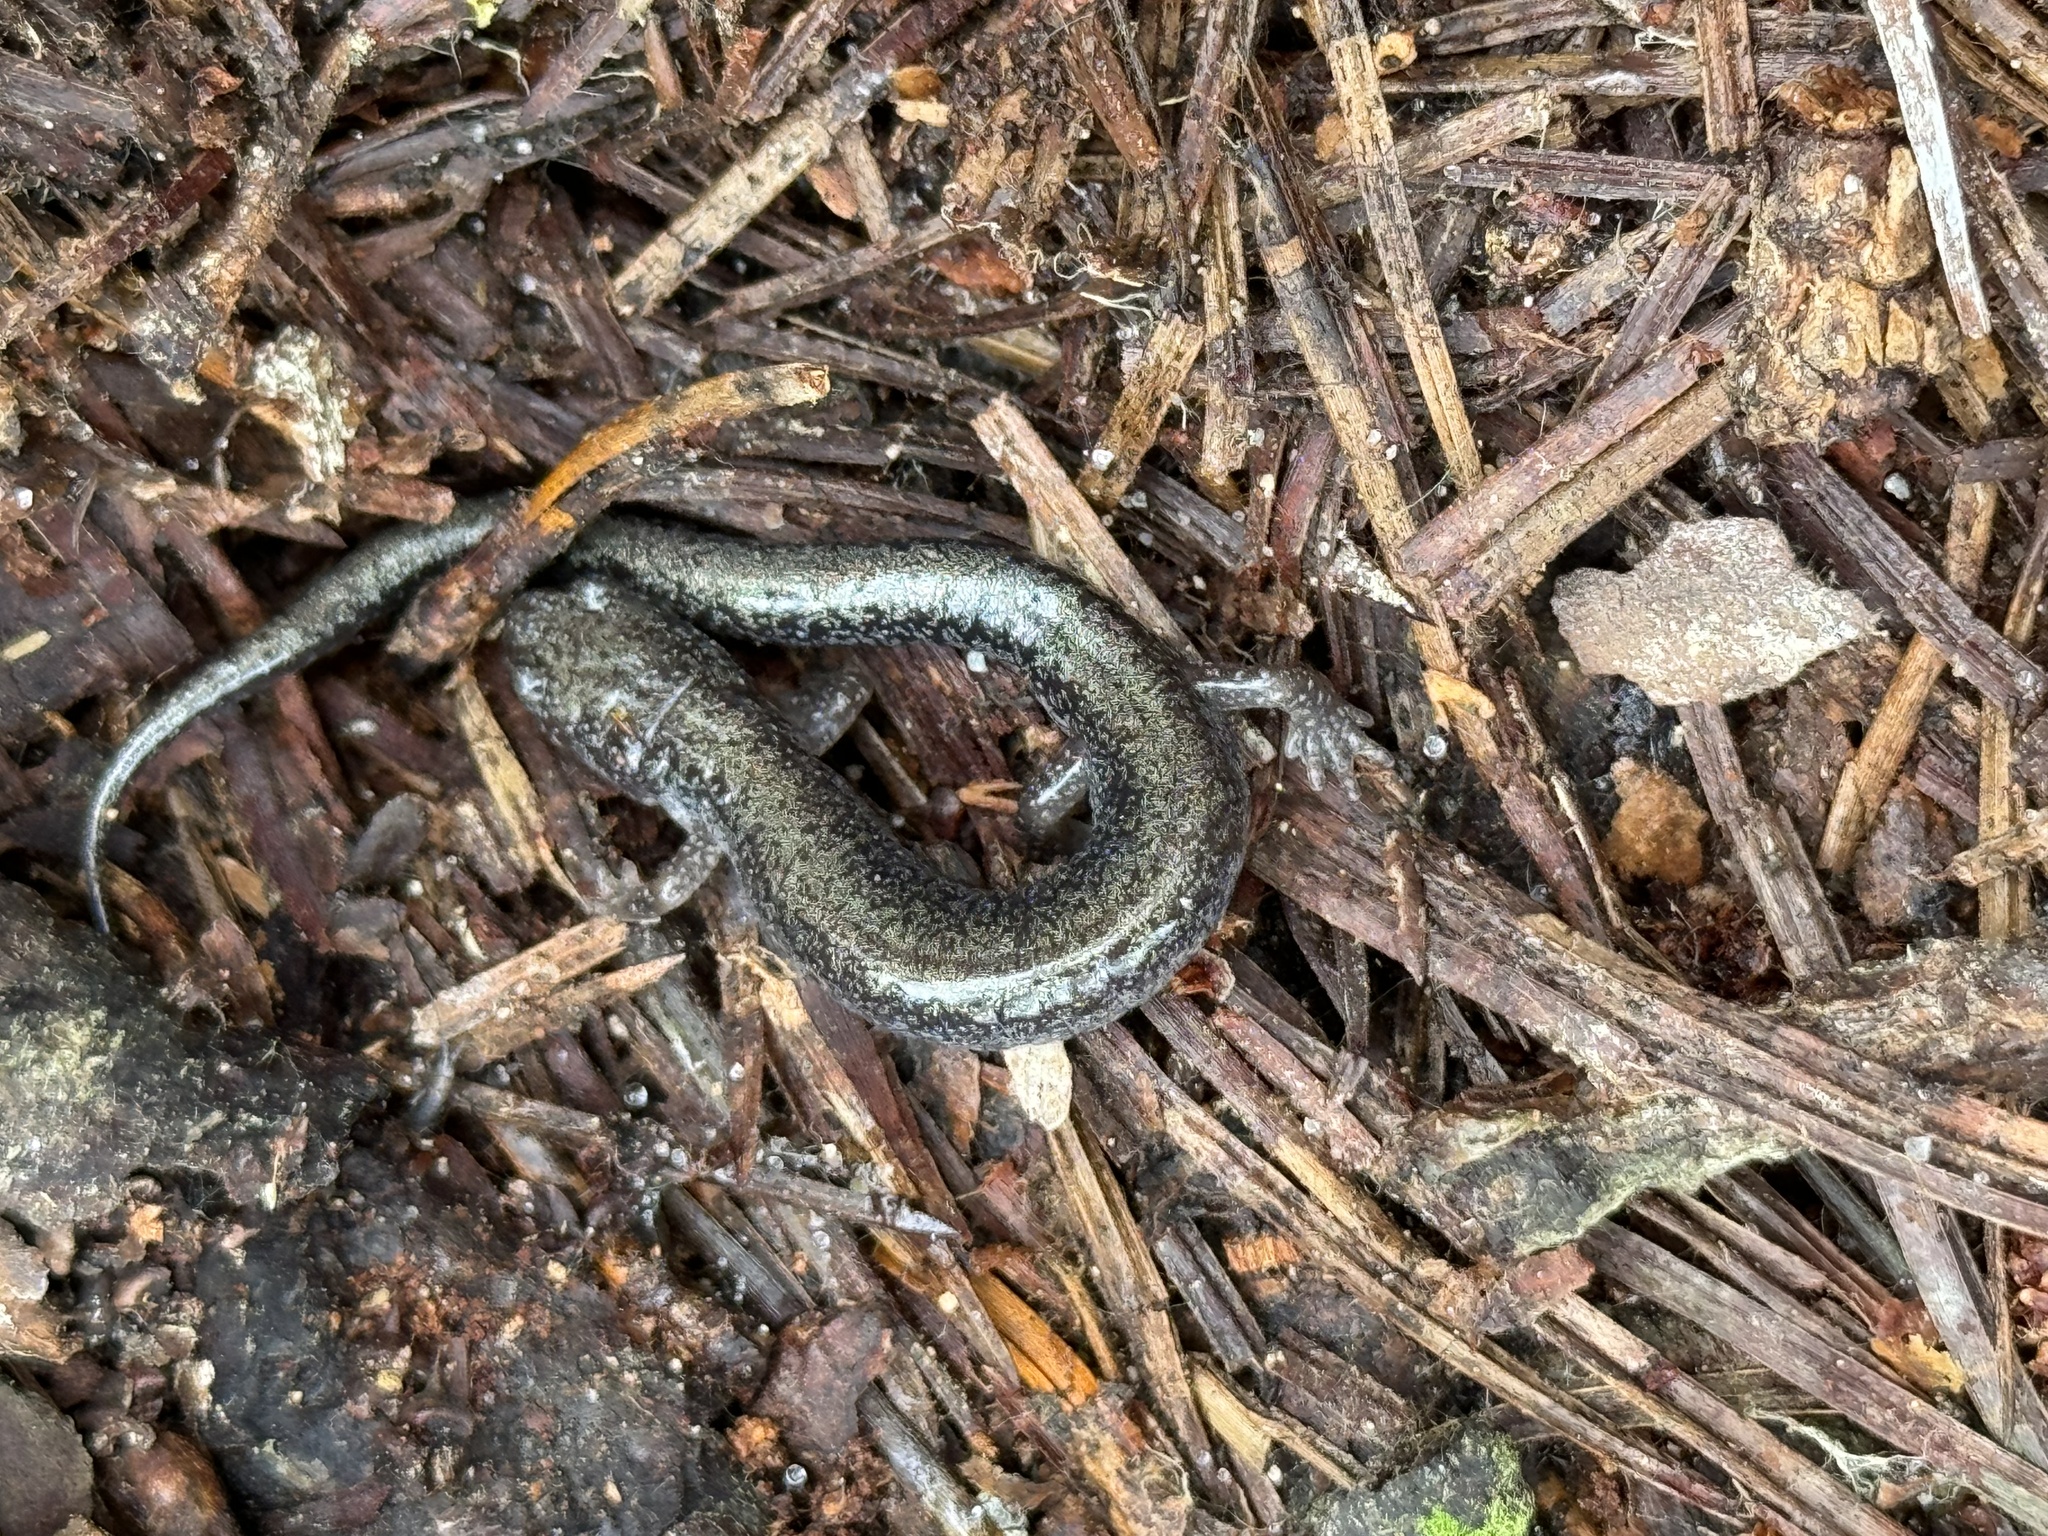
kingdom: Animalia
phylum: Chordata
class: Amphibia
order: Caudata
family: Plethodontidae
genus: Plethodon
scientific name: Plethodon cinereus
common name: Redback salamander
